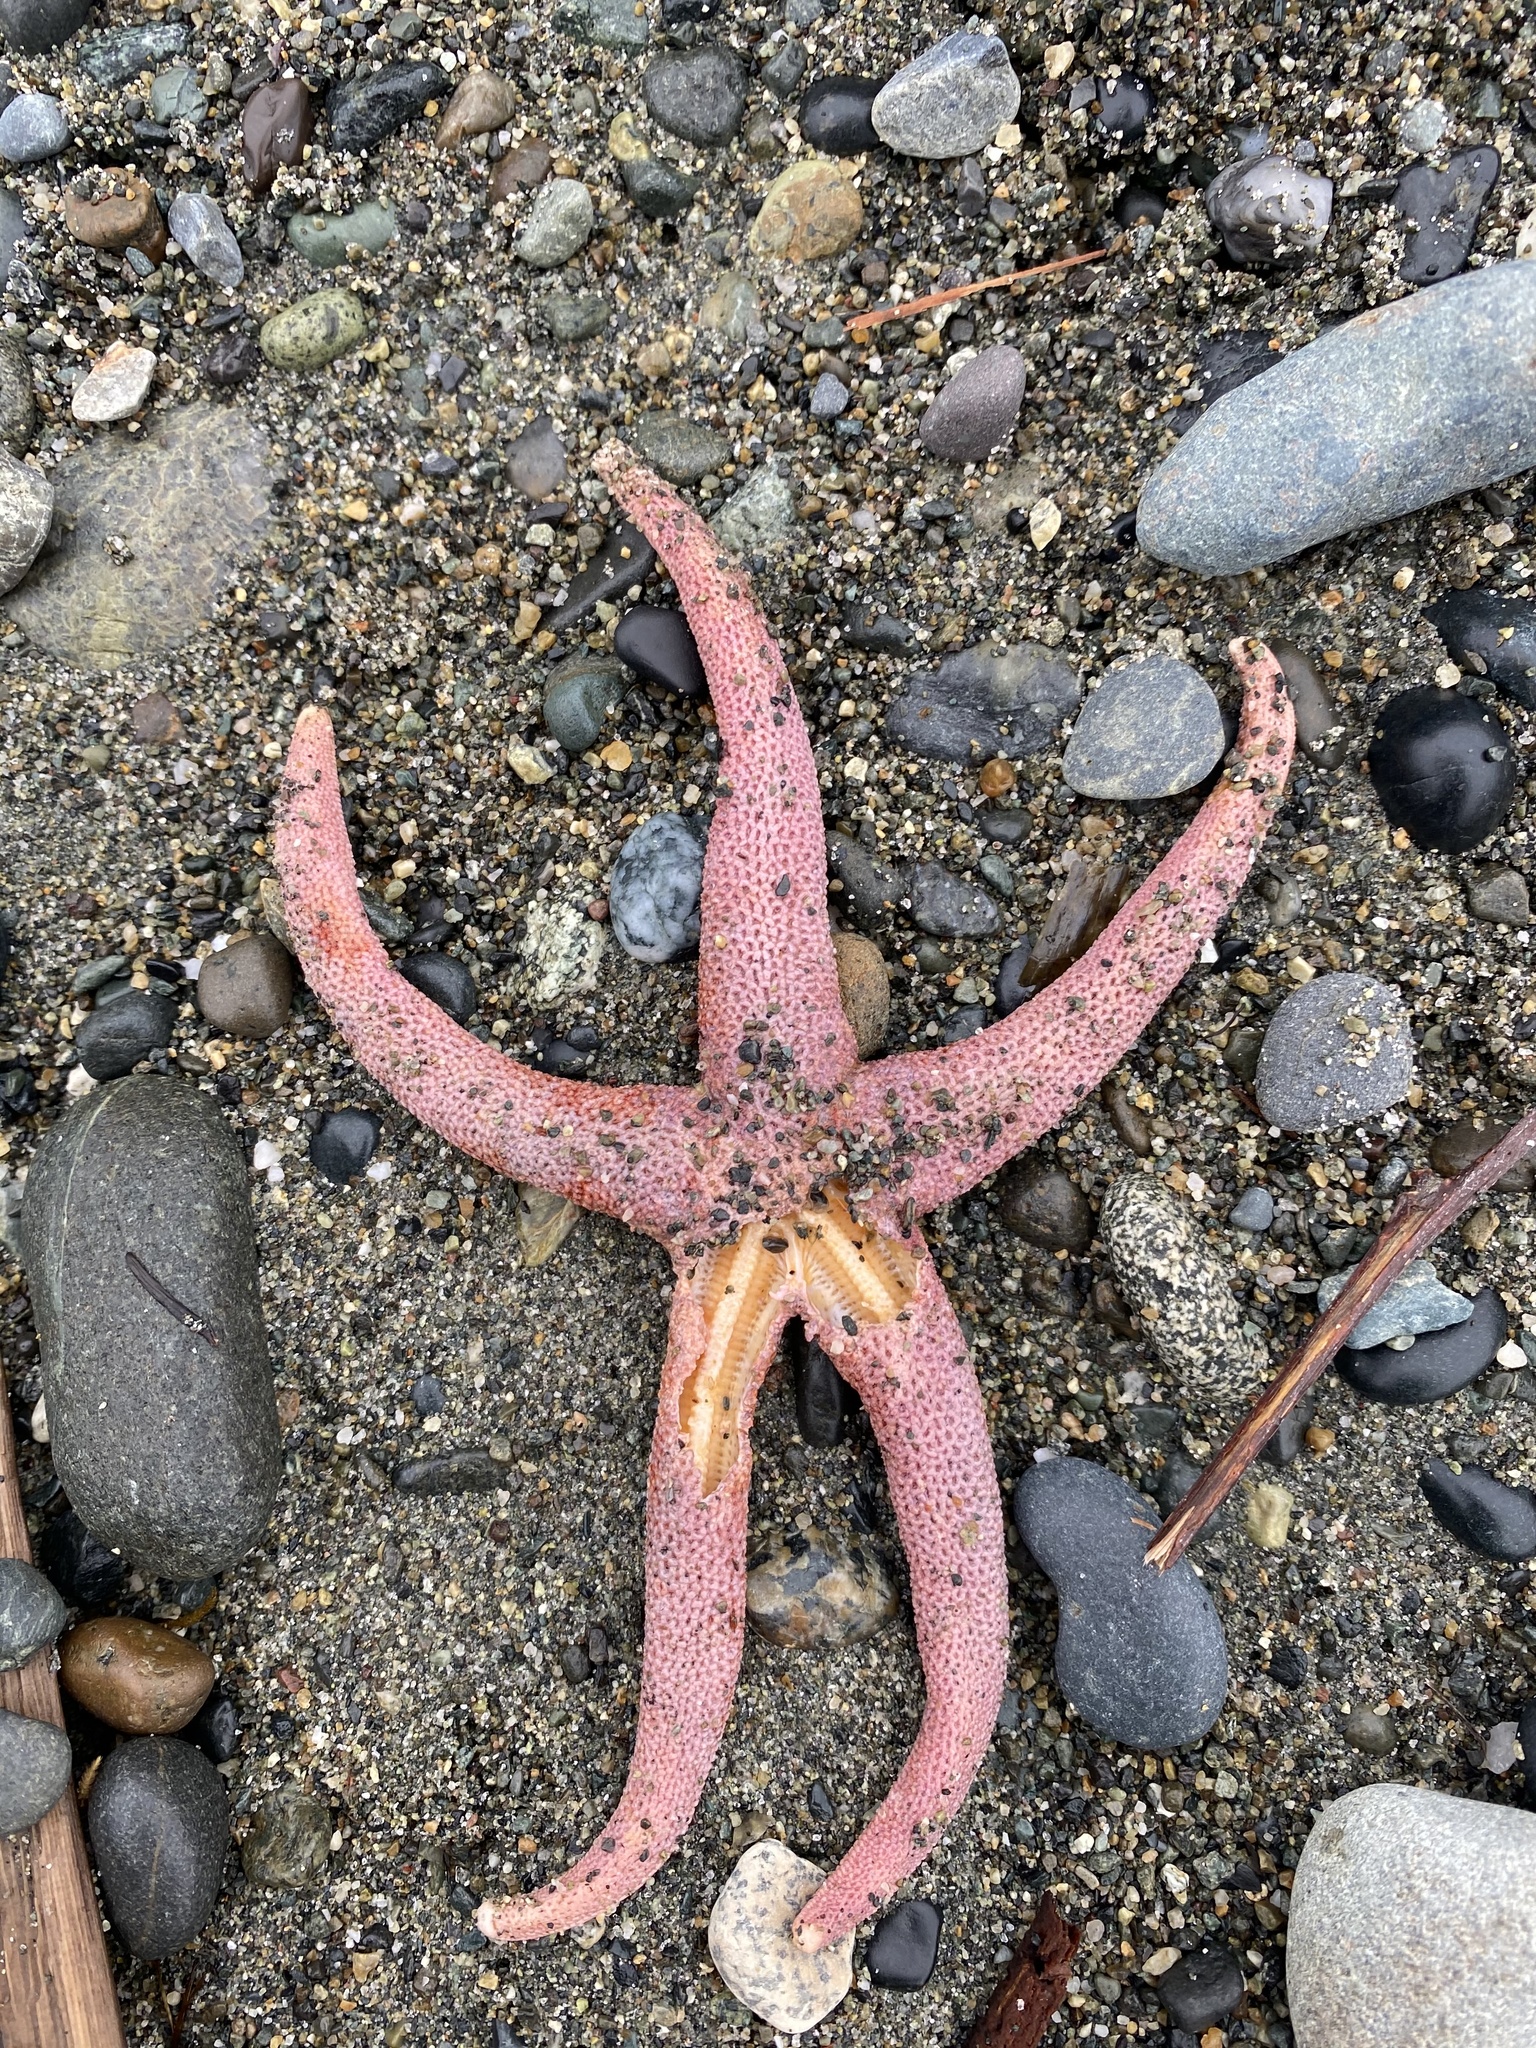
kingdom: Animalia
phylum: Echinodermata
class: Asteroidea
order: Spinulosida
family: Echinasteridae
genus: Henricia
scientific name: Henricia leviuscula
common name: Pacific blood star
